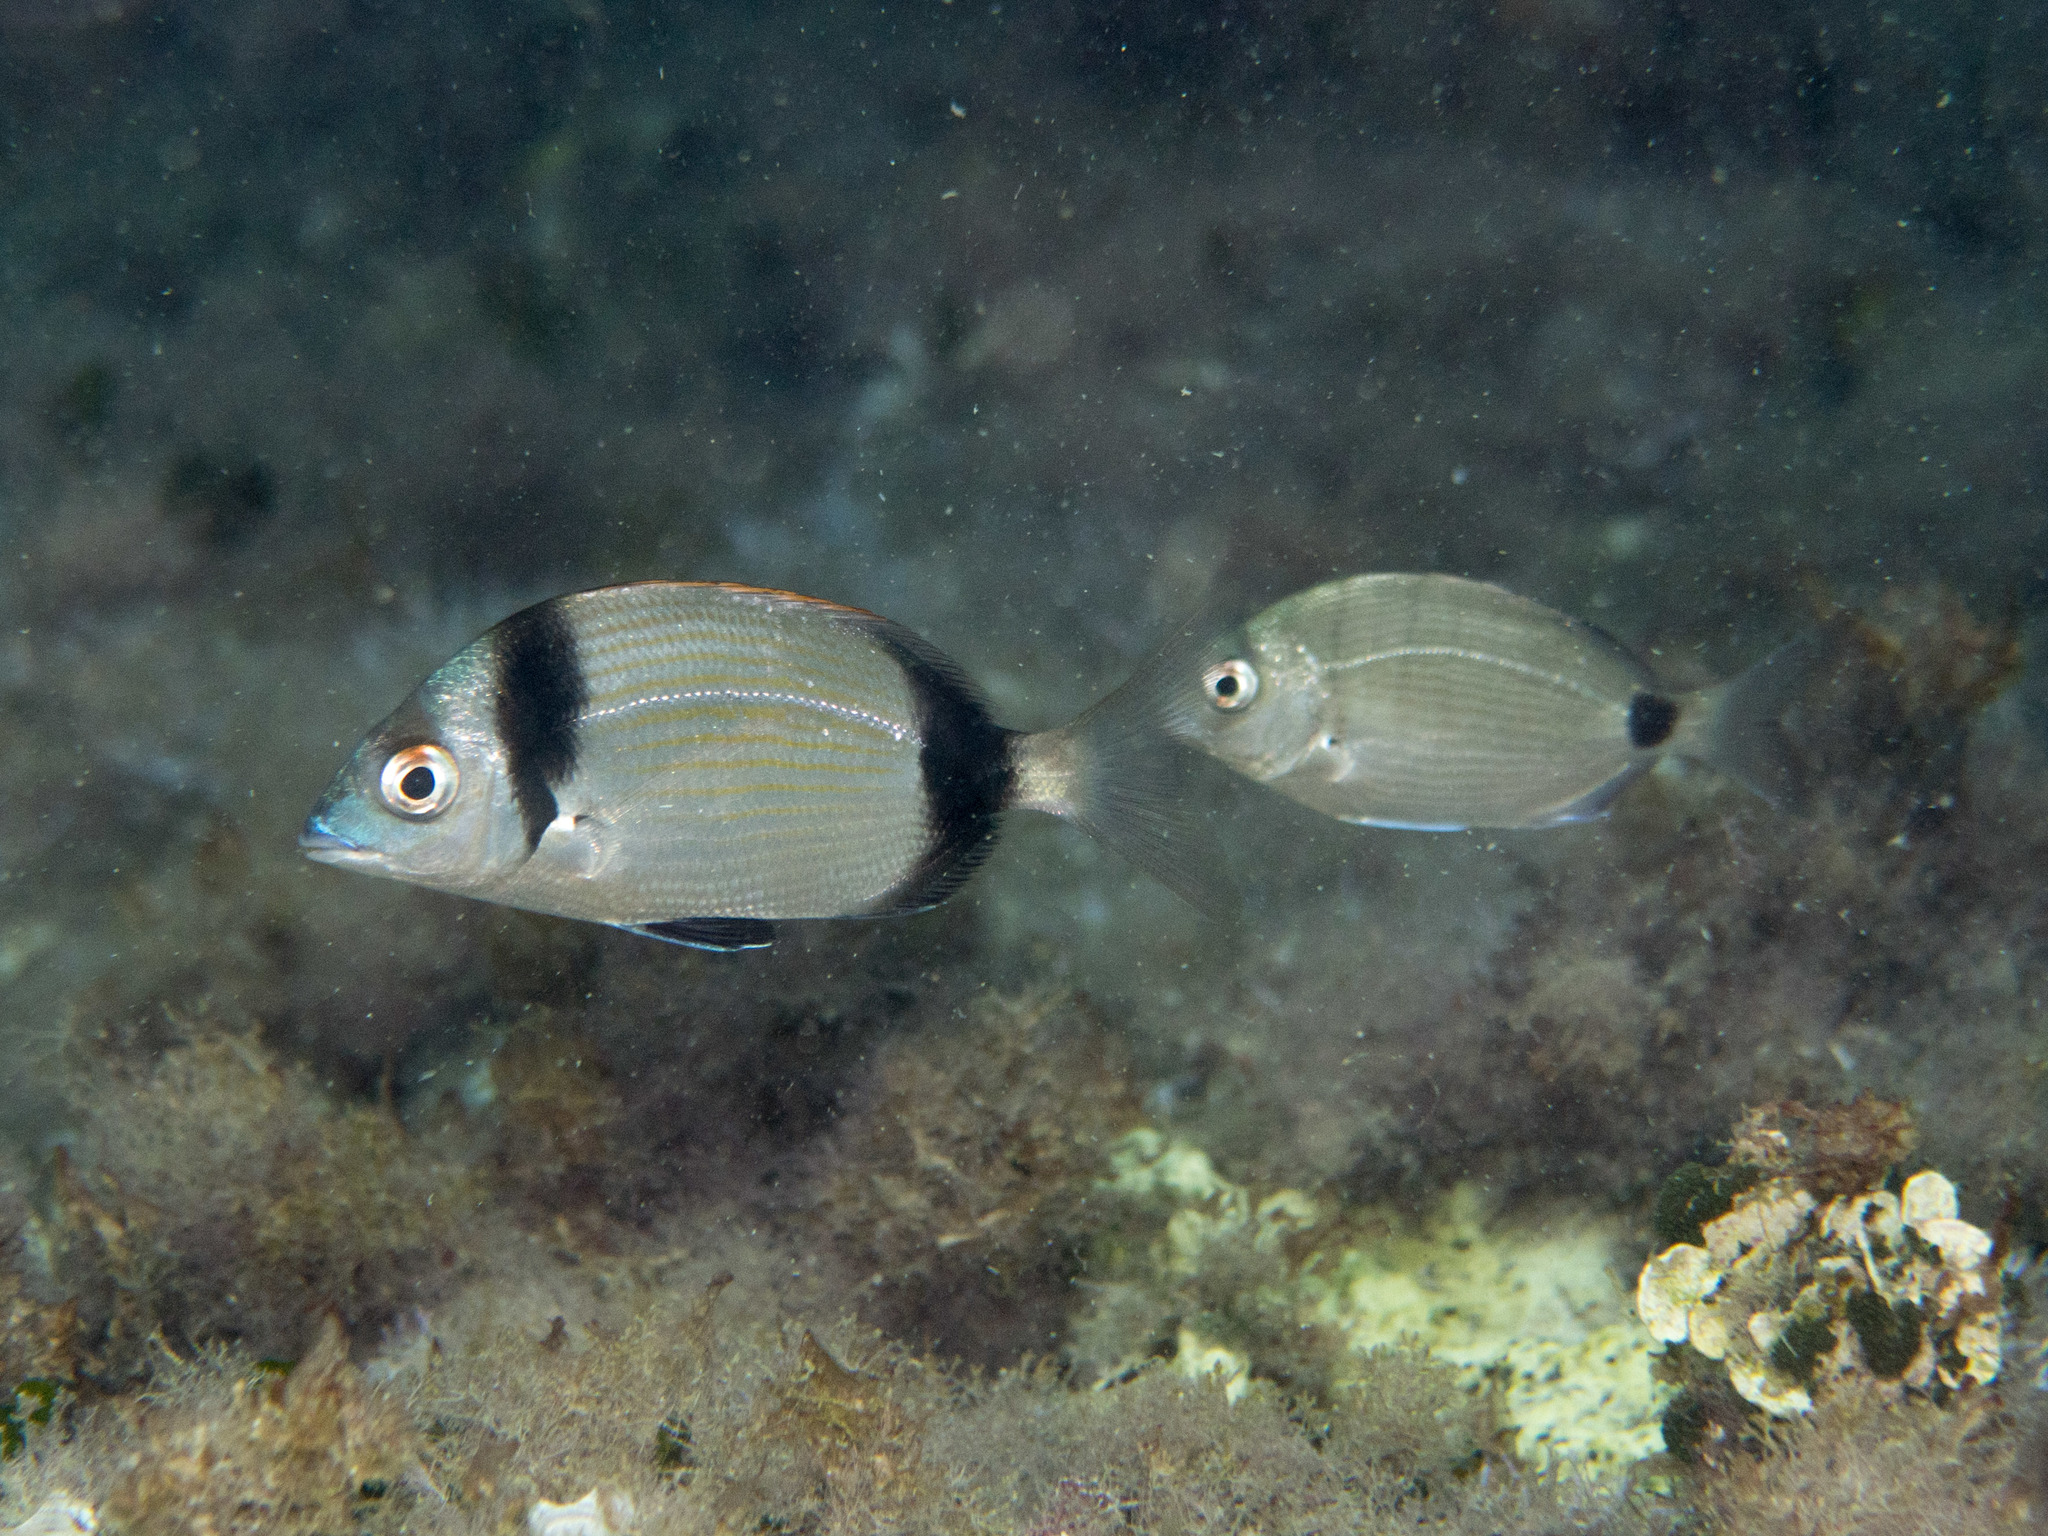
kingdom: Animalia
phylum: Chordata
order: Perciformes
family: Sparidae
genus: Diplodus
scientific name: Diplodus sargus
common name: White seabream
